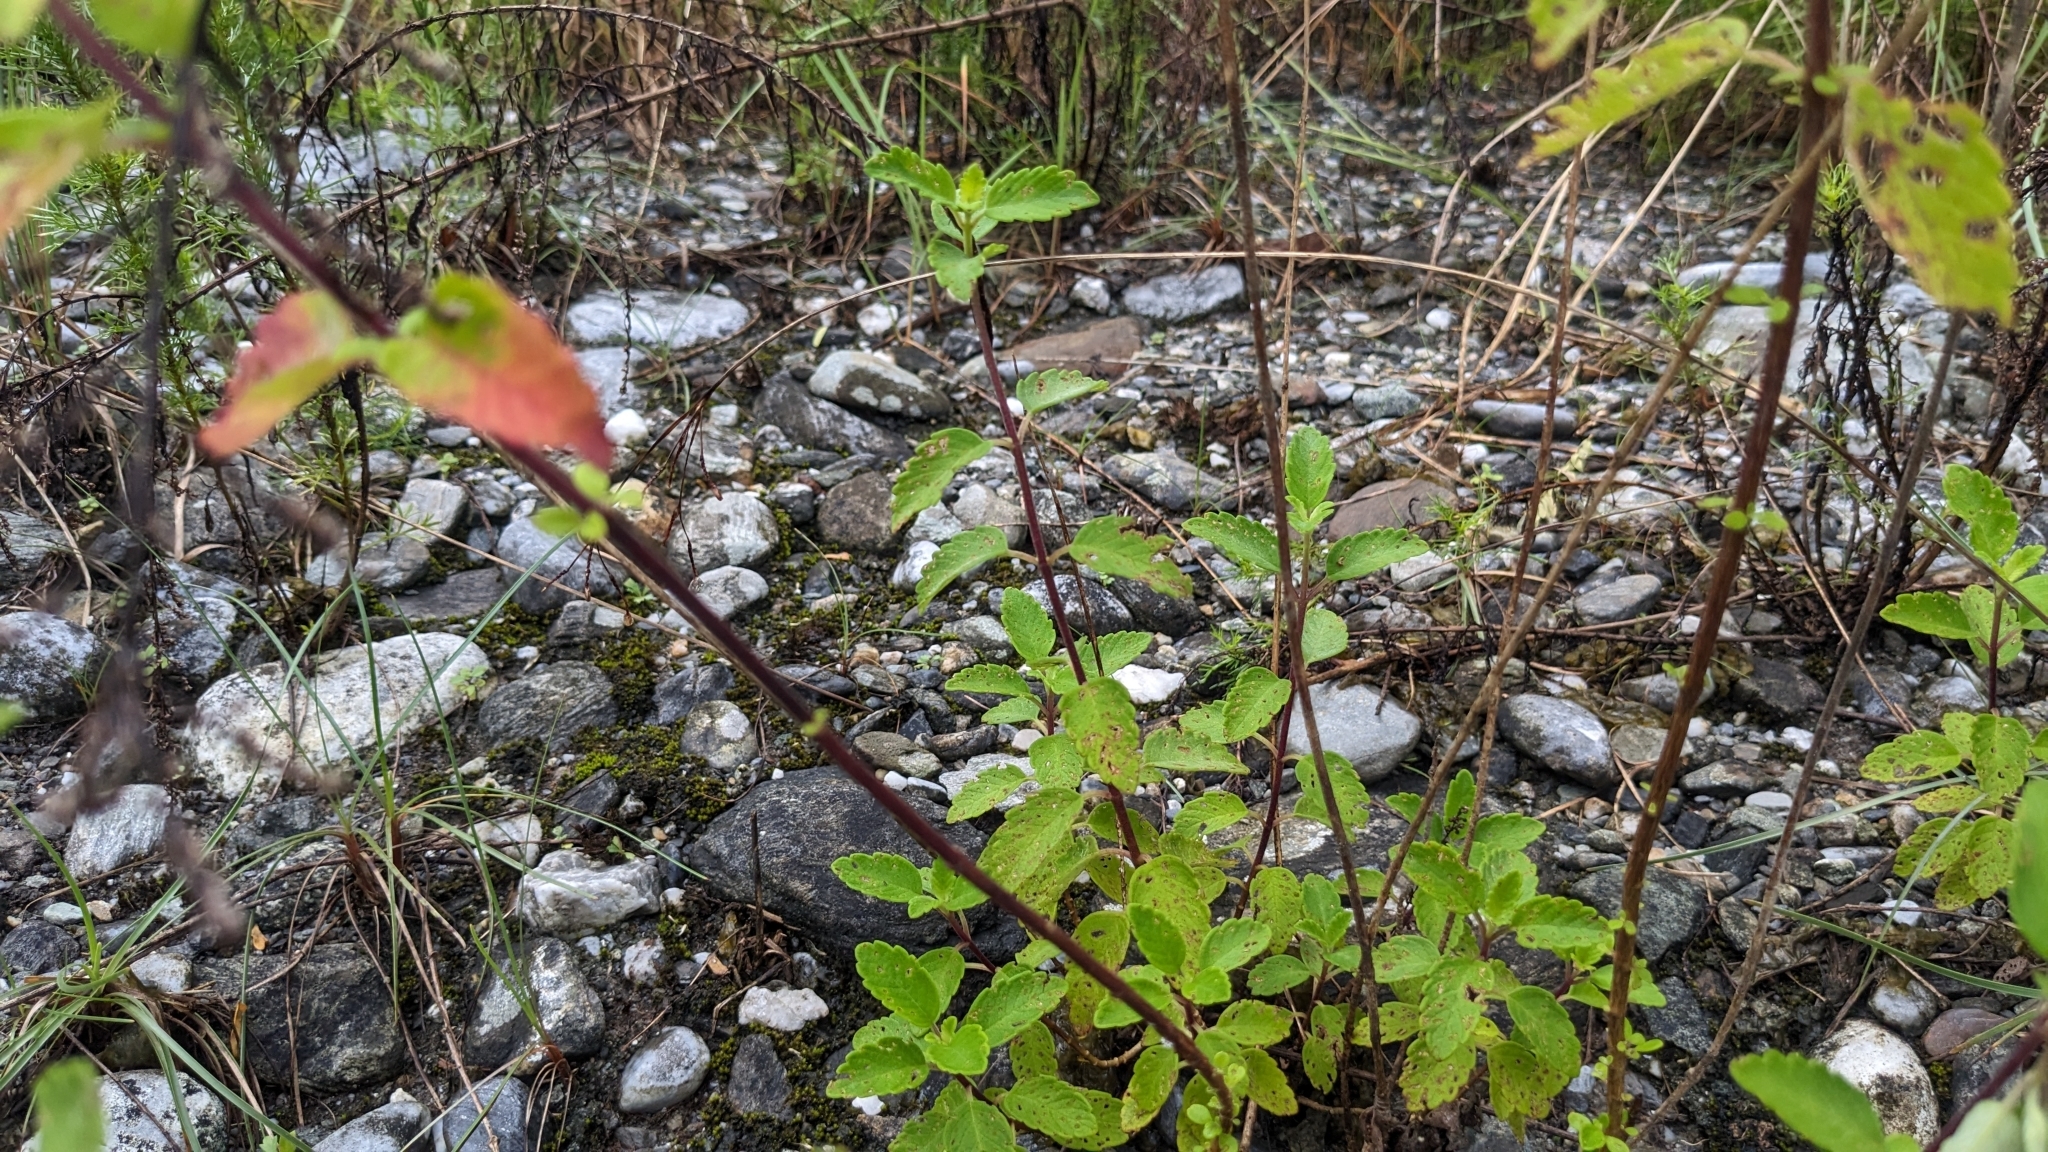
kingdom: Plantae
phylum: Tracheophyta
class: Magnoliopsida
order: Lamiales
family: Lamiaceae
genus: Caryopteris
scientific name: Caryopteris incana
